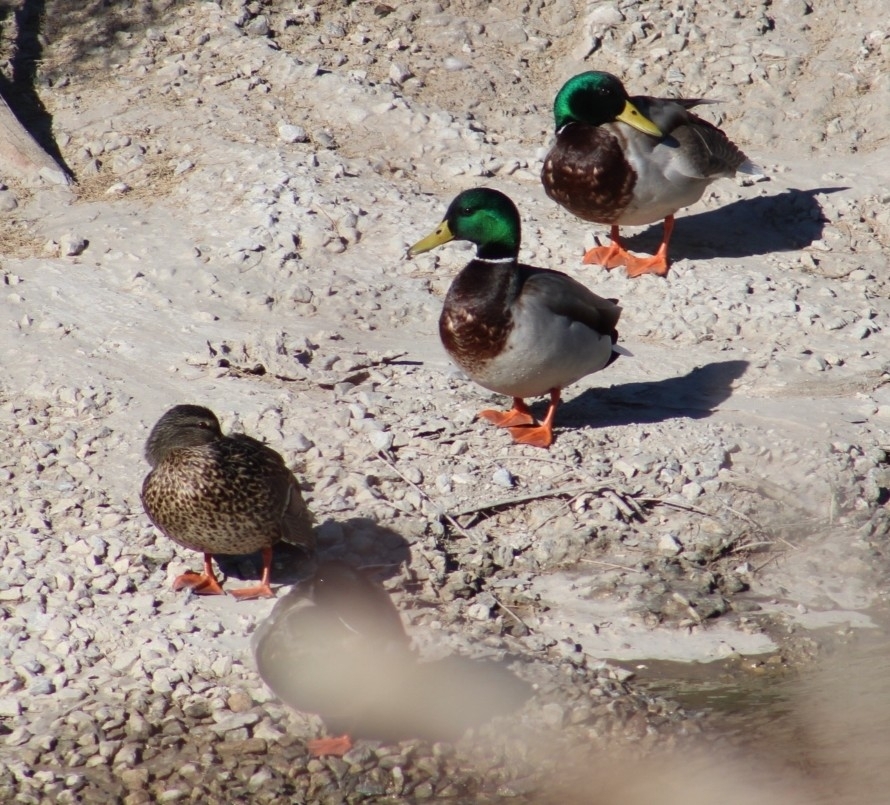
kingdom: Animalia
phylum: Chordata
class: Aves
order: Anseriformes
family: Anatidae
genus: Anas
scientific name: Anas platyrhynchos
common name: Mallard
